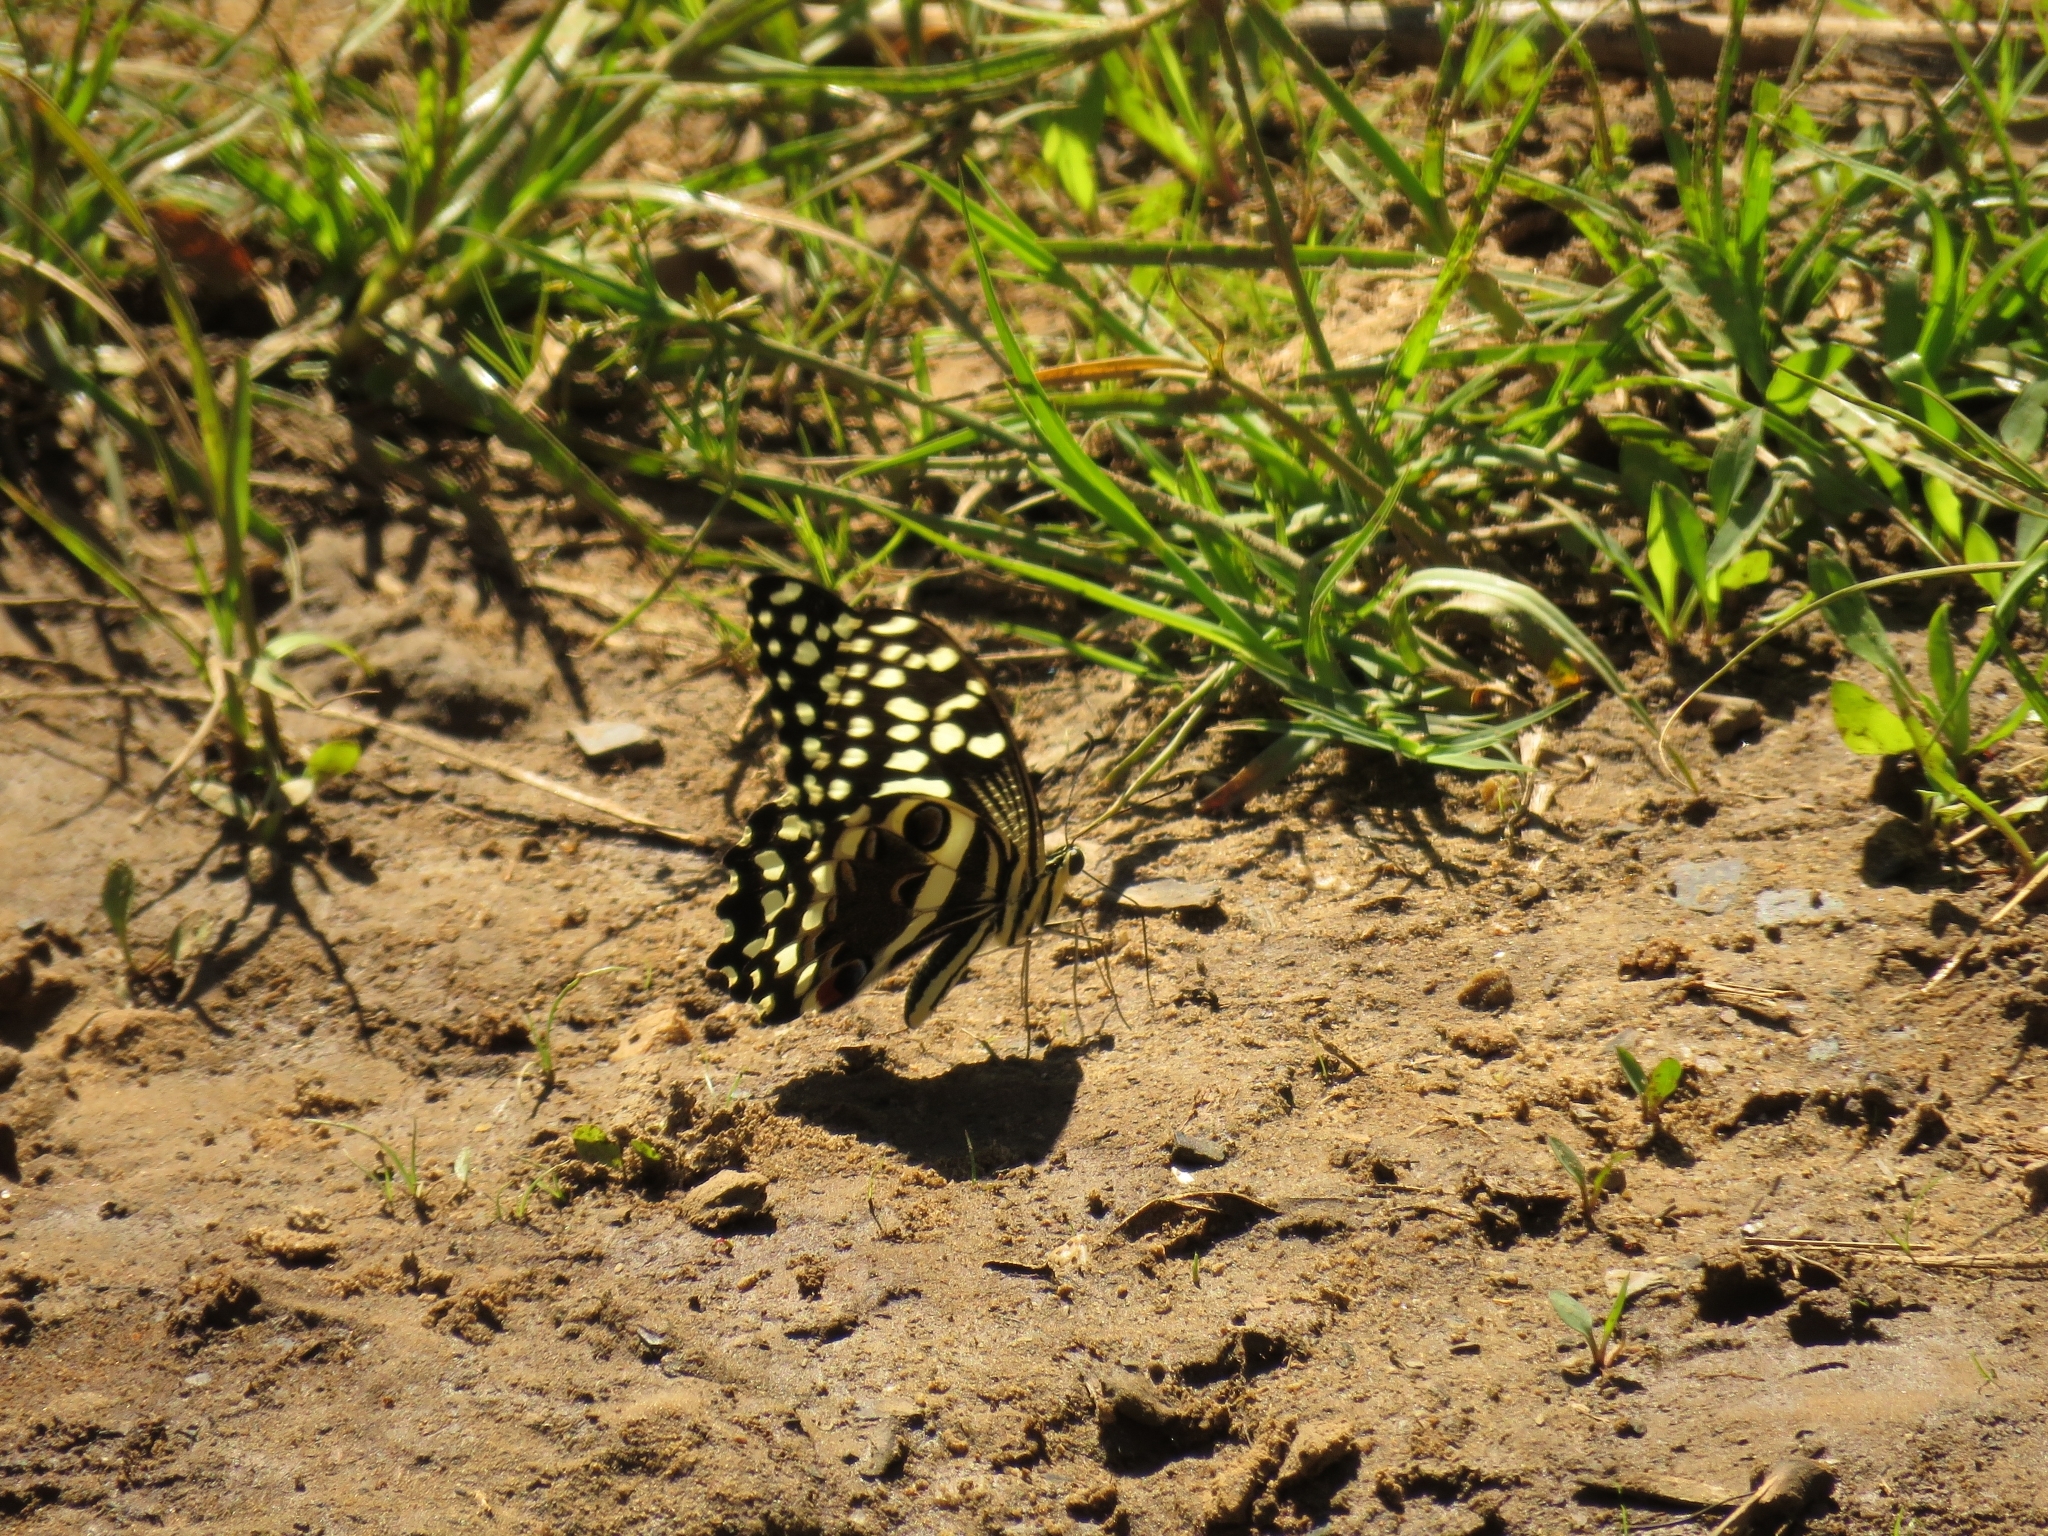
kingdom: Animalia
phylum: Arthropoda
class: Insecta
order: Lepidoptera
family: Papilionidae
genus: Papilio
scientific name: Papilio demodocus
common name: Christmas butterfly
